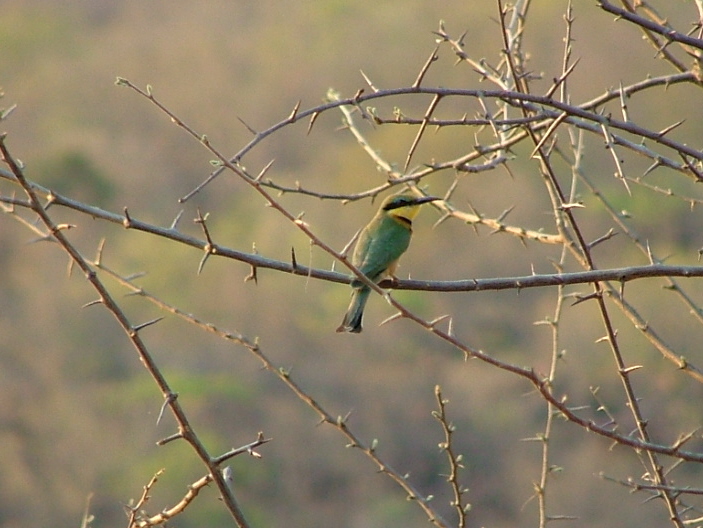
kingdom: Animalia
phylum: Chordata
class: Aves
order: Coraciiformes
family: Meropidae
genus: Merops
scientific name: Merops pusillus
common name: Little bee-eater
